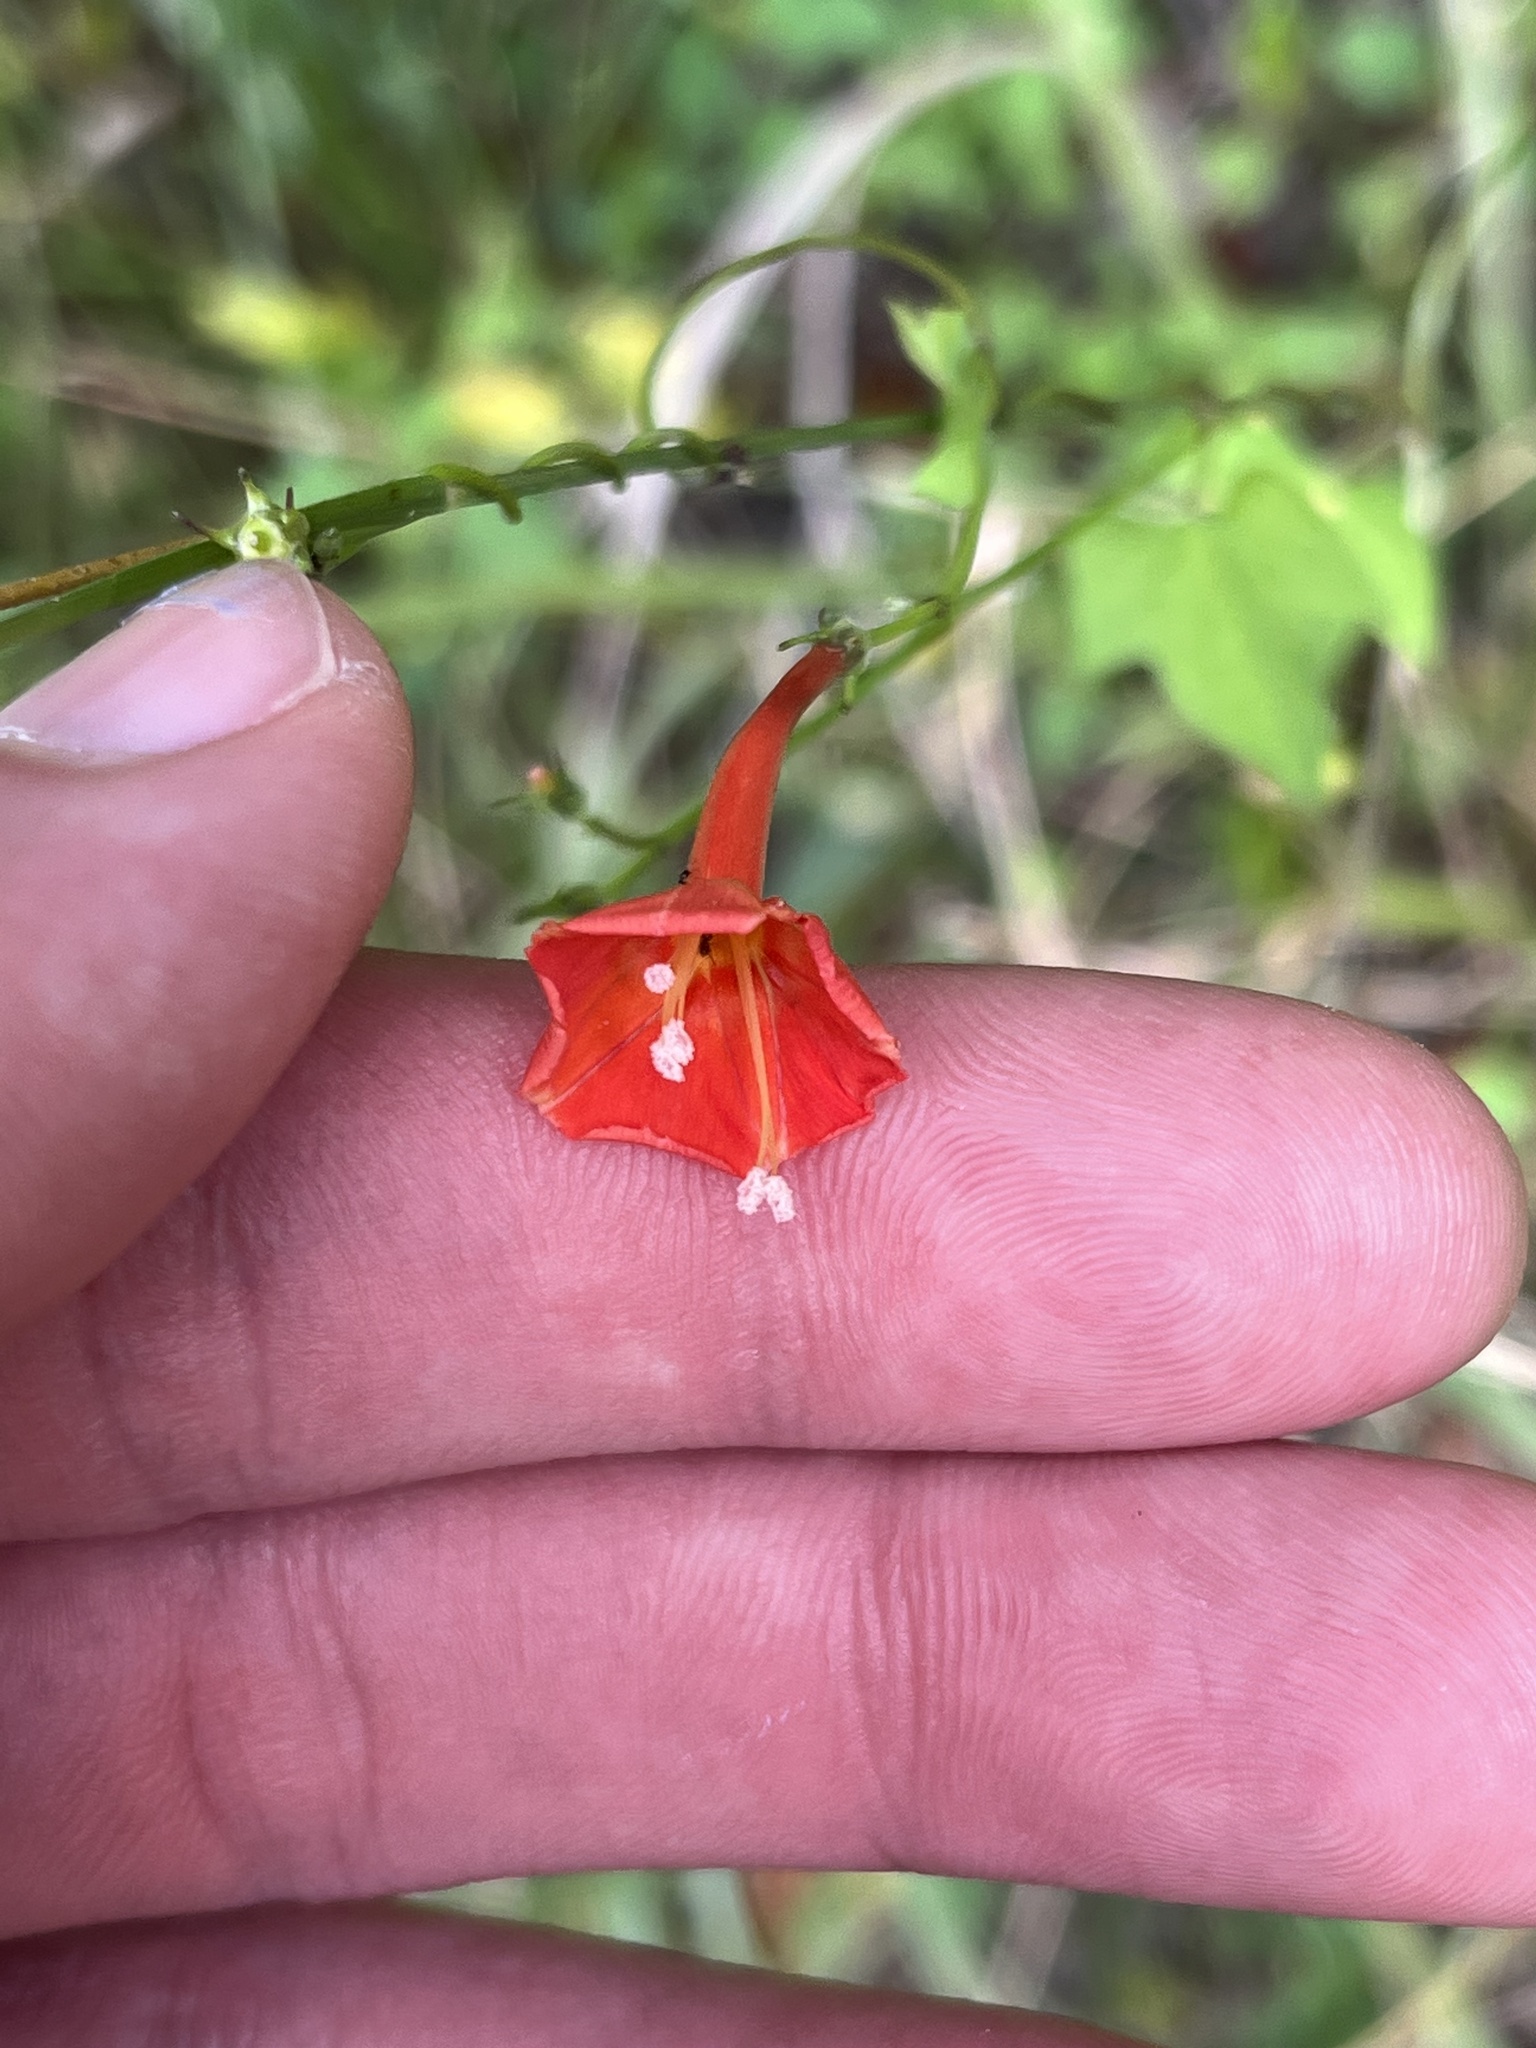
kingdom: Plantae
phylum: Tracheophyta
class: Magnoliopsida
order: Solanales
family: Convolvulaceae
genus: Ipomoea
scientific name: Ipomoea hederifolia
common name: Ivy-leaf morning-glory
